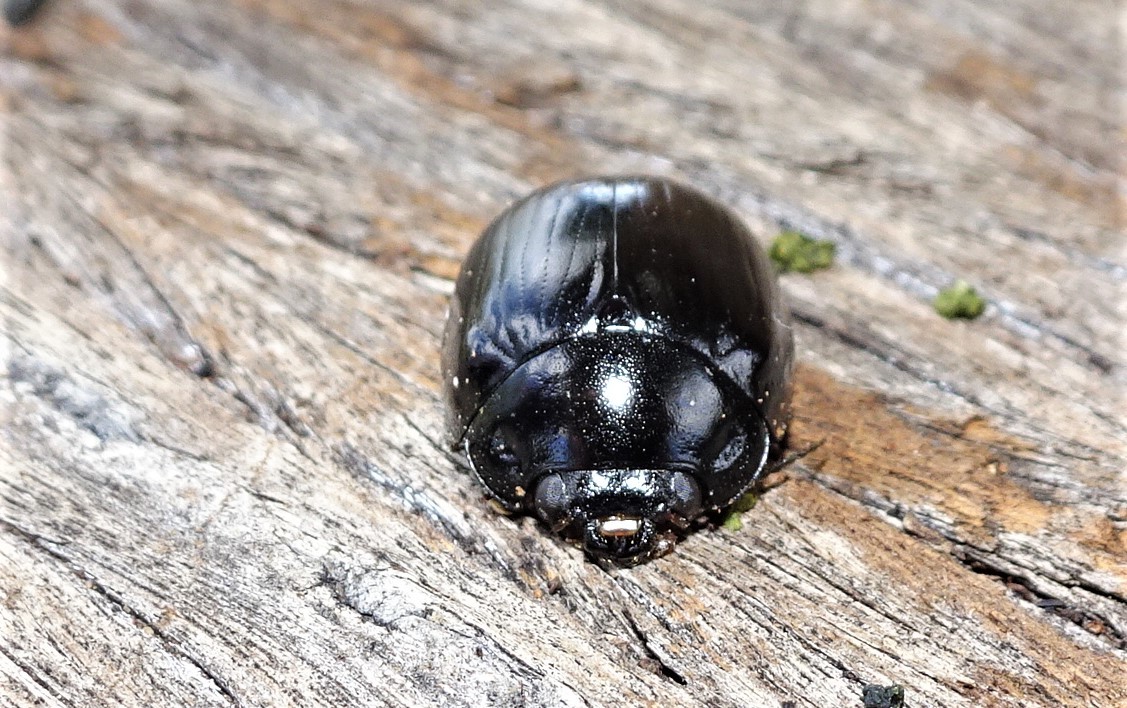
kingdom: Animalia
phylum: Arthropoda
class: Insecta
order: Coleoptera
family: Chrysomelidae
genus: Paropsisterna
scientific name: Paropsisterna
